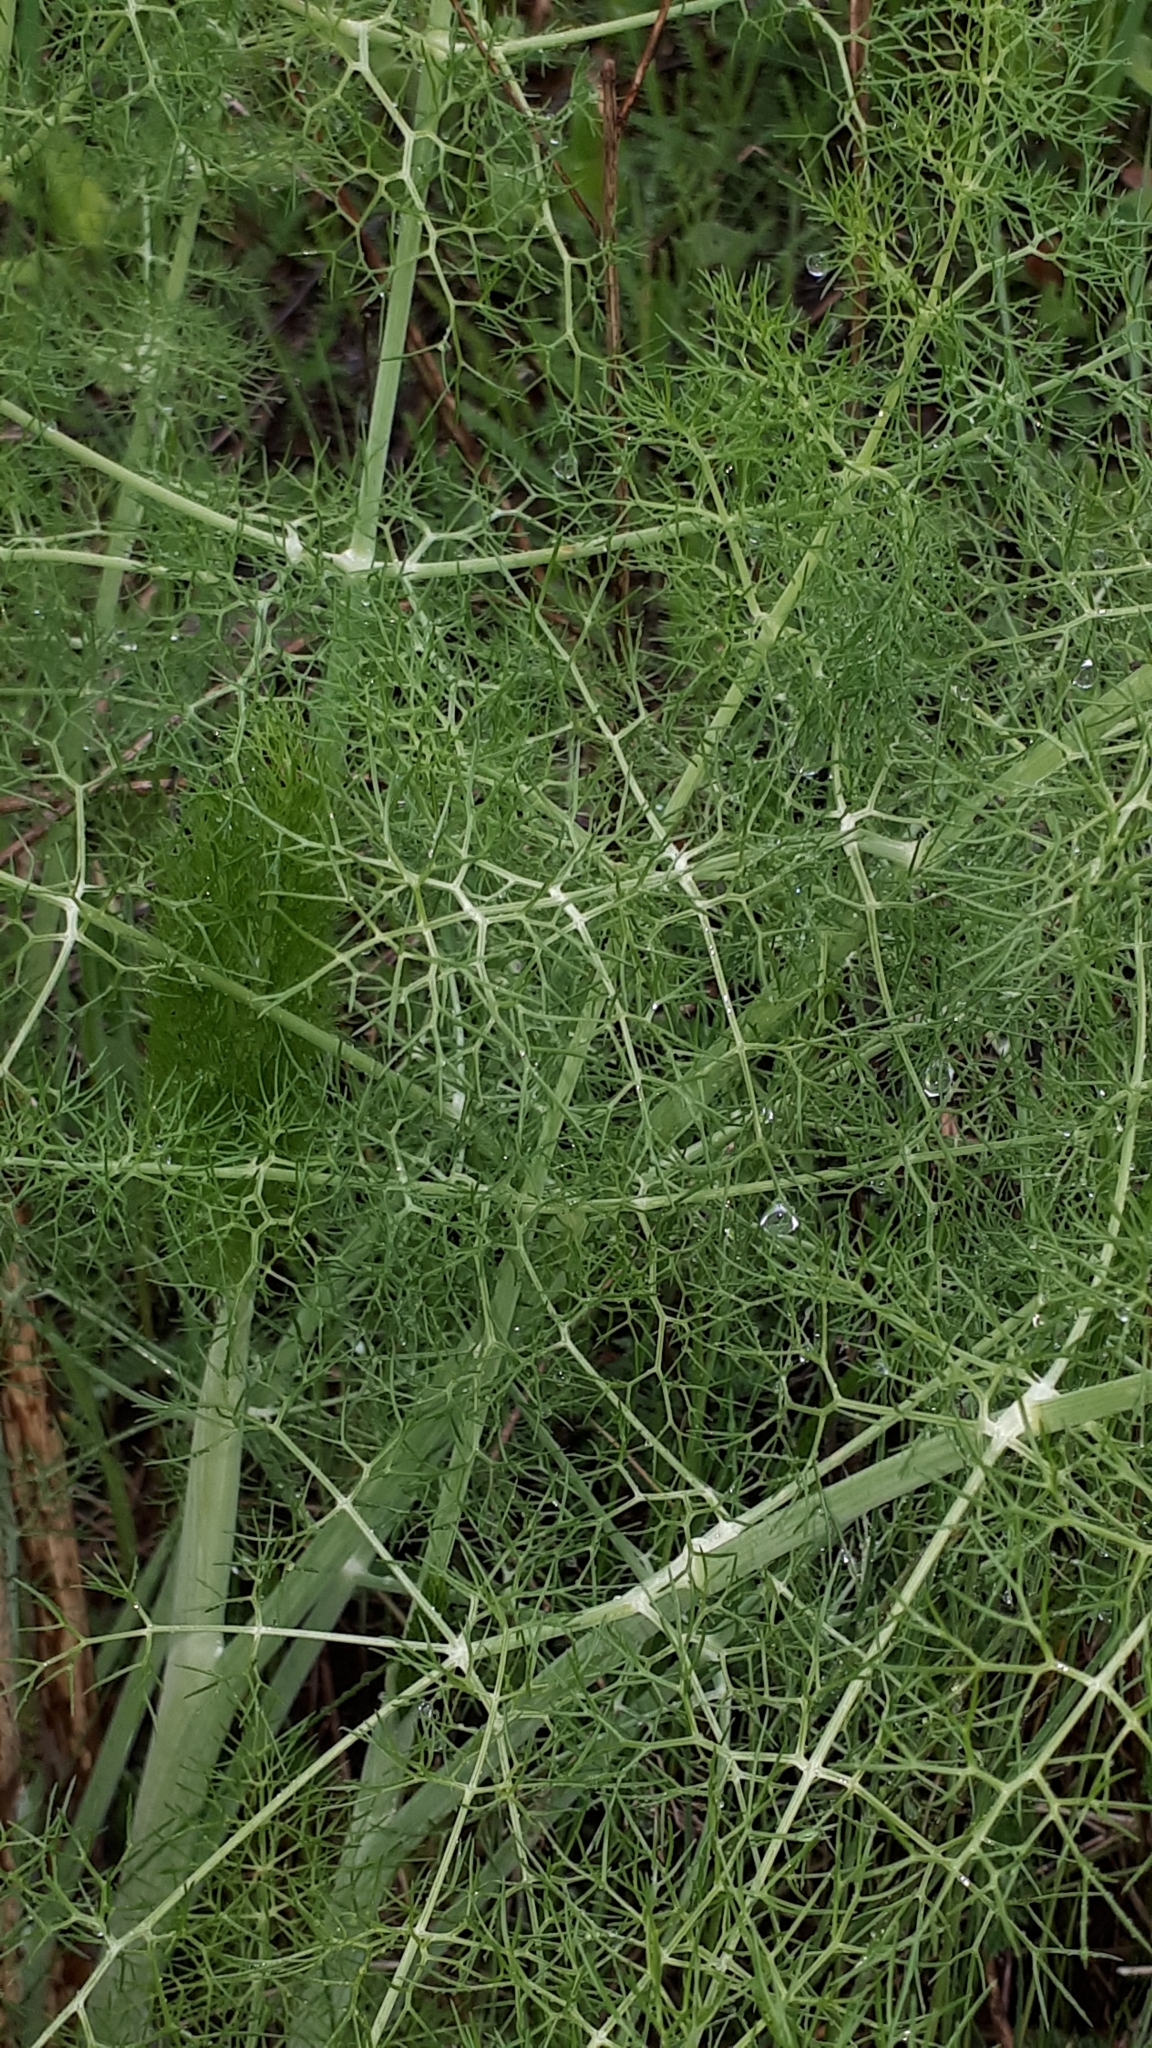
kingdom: Plantae
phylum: Tracheophyta
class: Magnoliopsida
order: Apiales
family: Apiaceae
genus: Foeniculum
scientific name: Foeniculum vulgare
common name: Fennel
